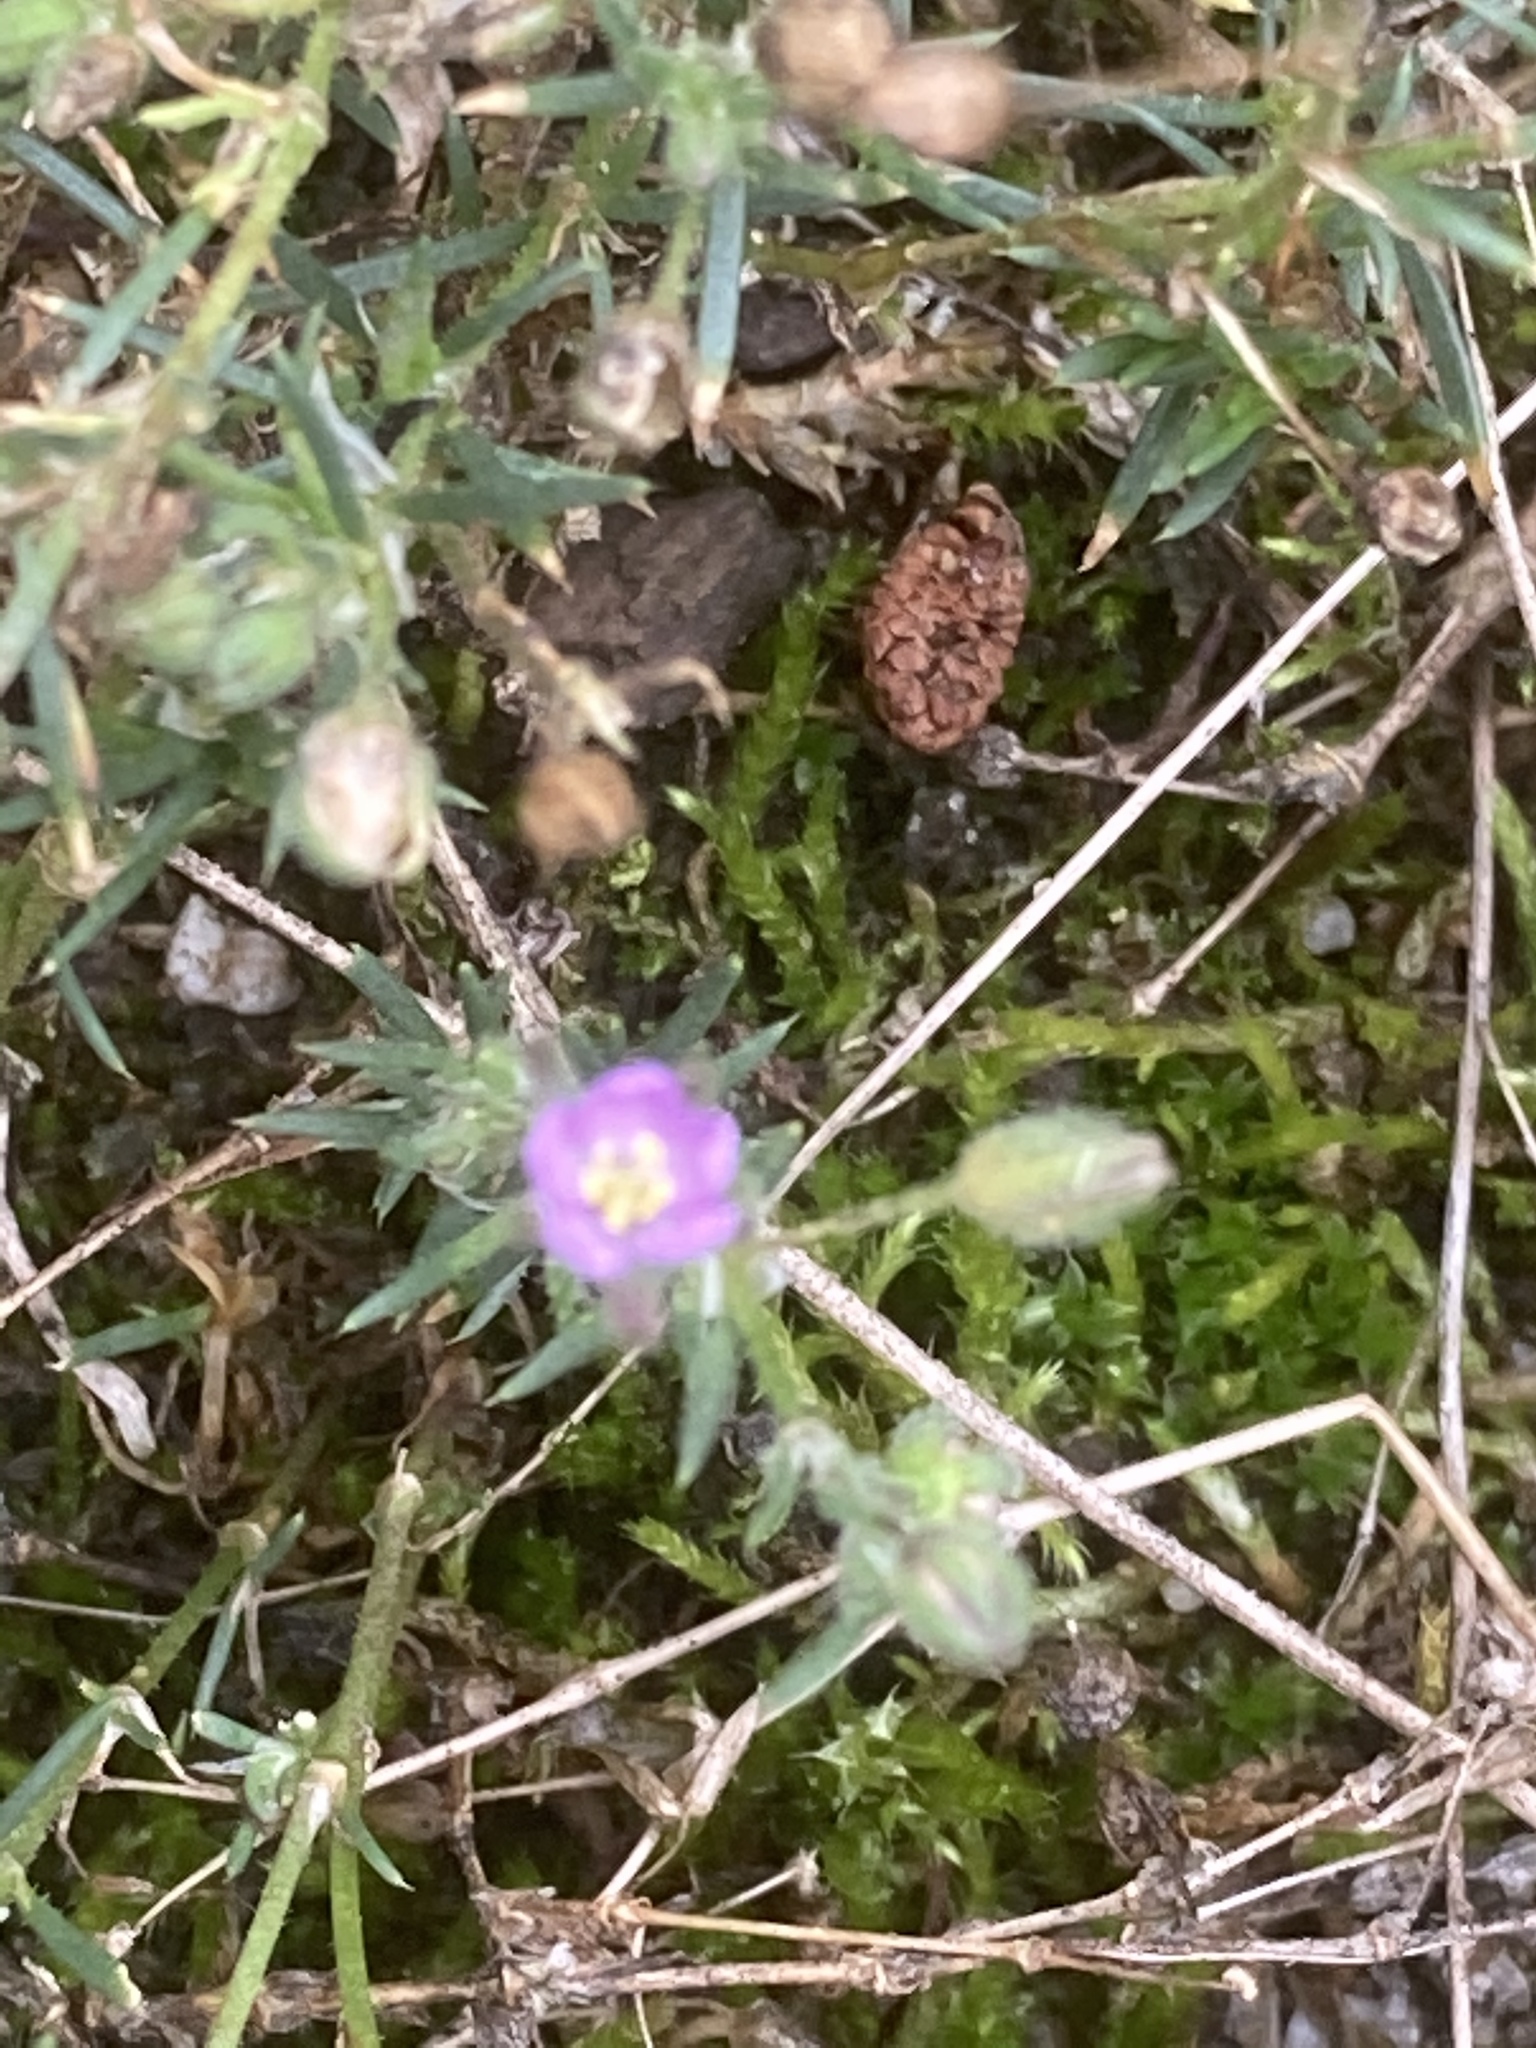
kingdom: Plantae
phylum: Tracheophyta
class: Magnoliopsida
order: Caryophyllales
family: Caryophyllaceae
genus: Spergularia
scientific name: Spergularia rubra
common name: Red sand-spurrey
